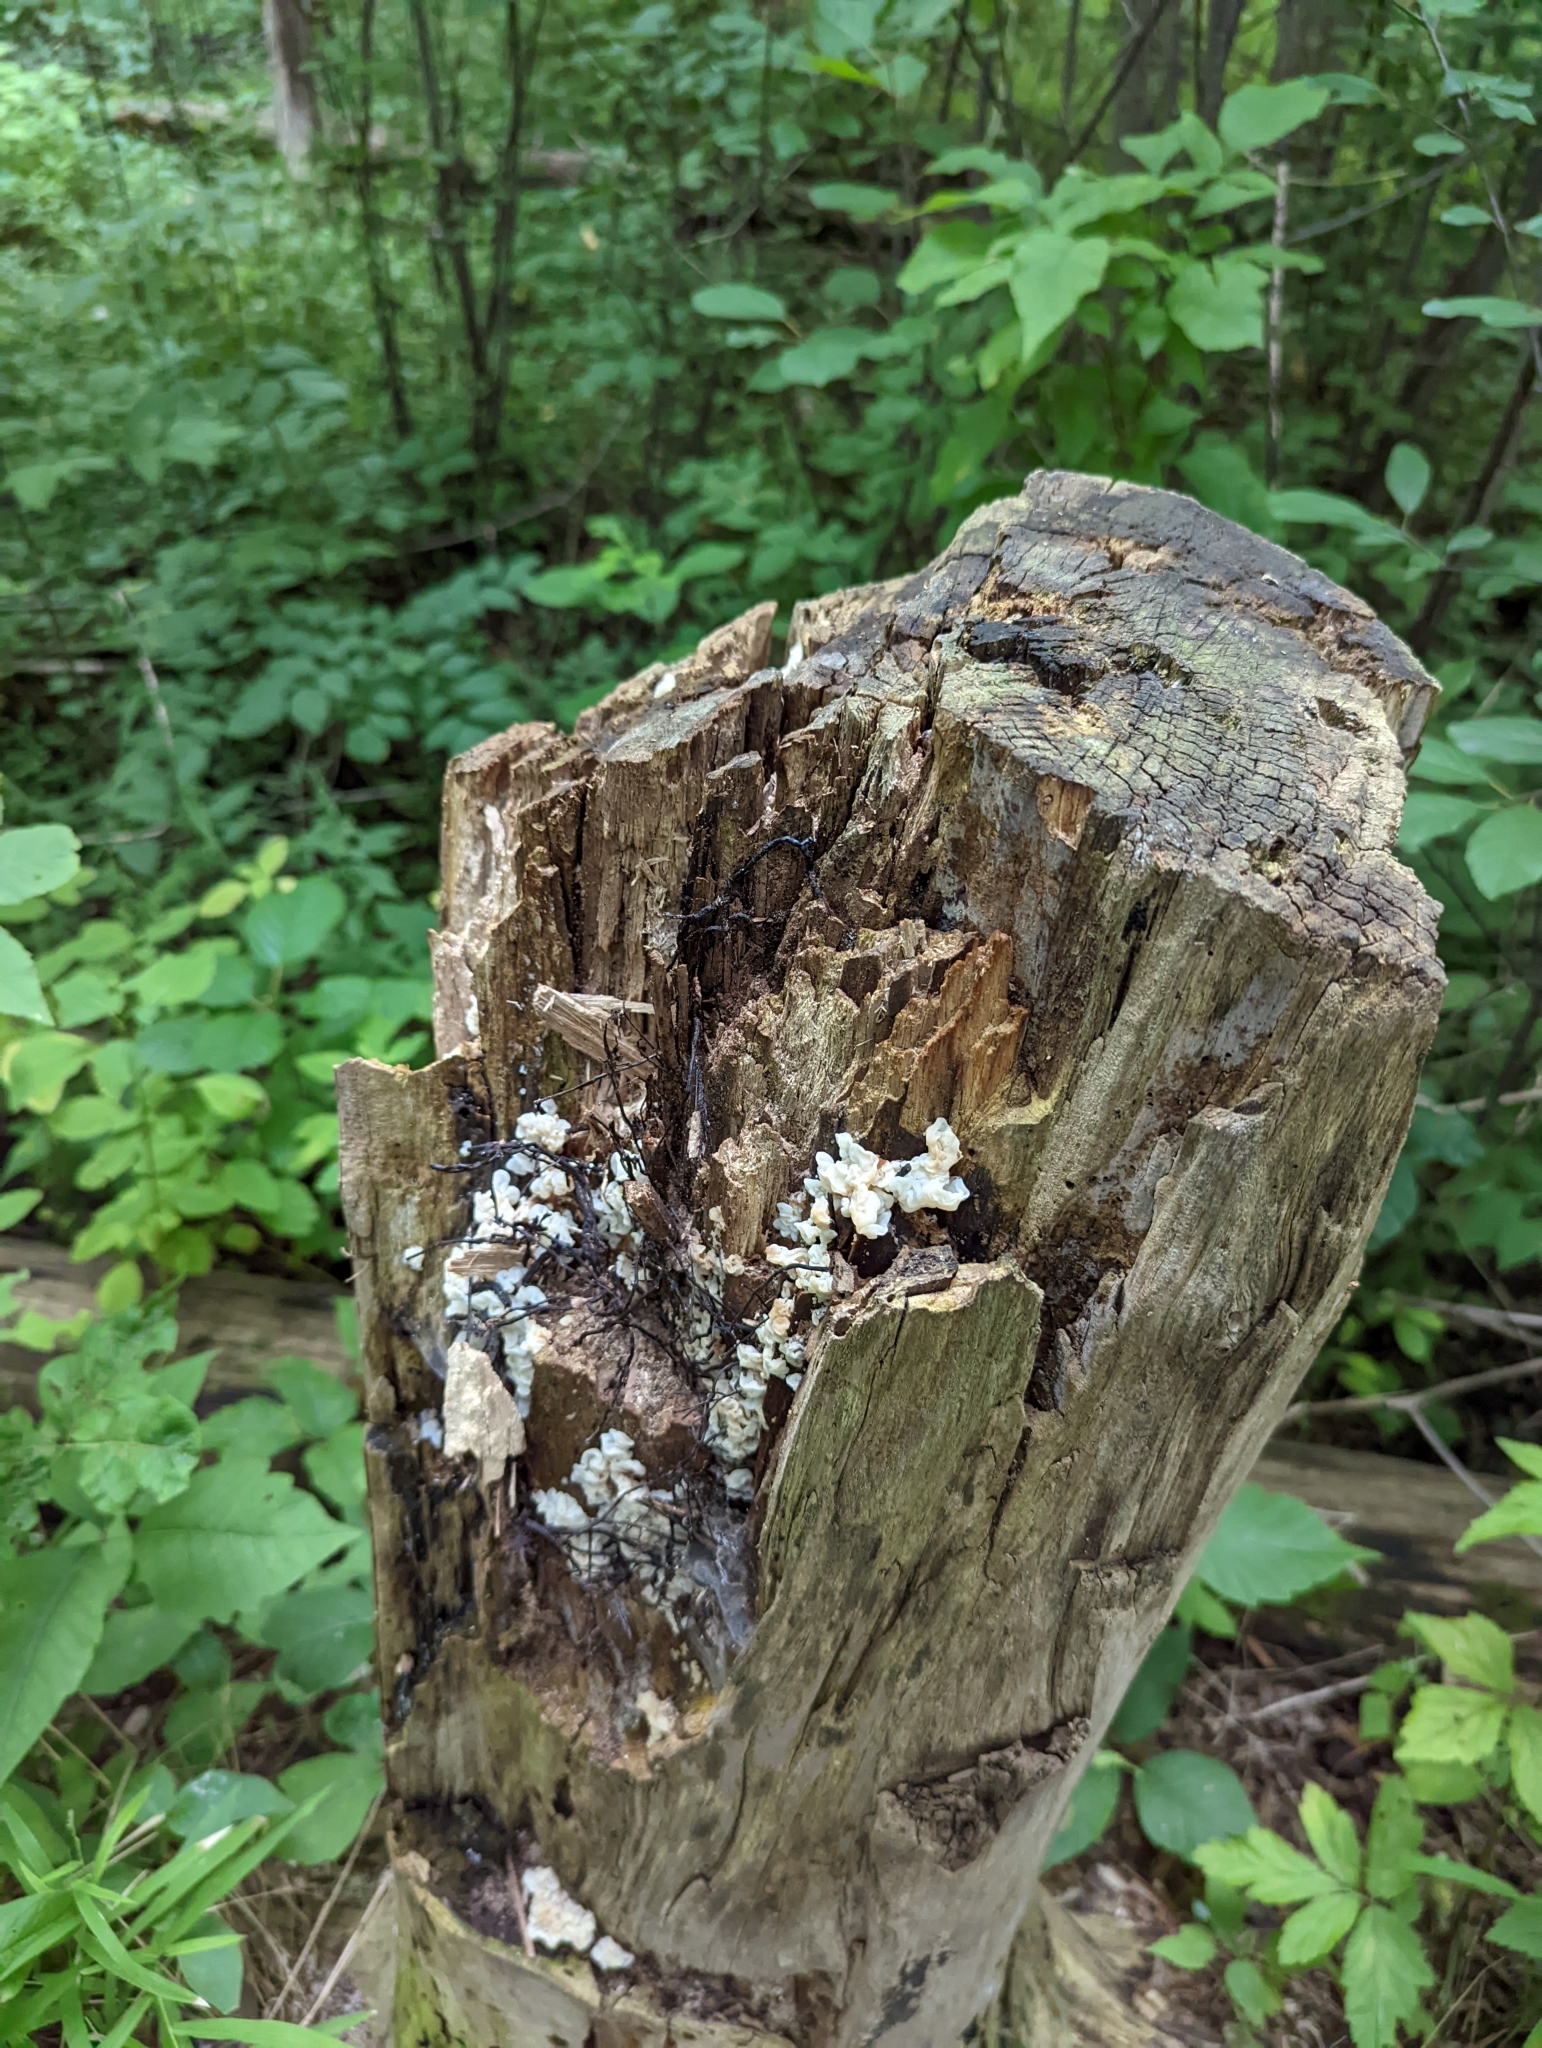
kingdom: Fungi
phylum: Basidiomycota
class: Agaricomycetes
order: Auriculariales
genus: Ductifera
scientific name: Ductifera pululahuana
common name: White jelly fungus
